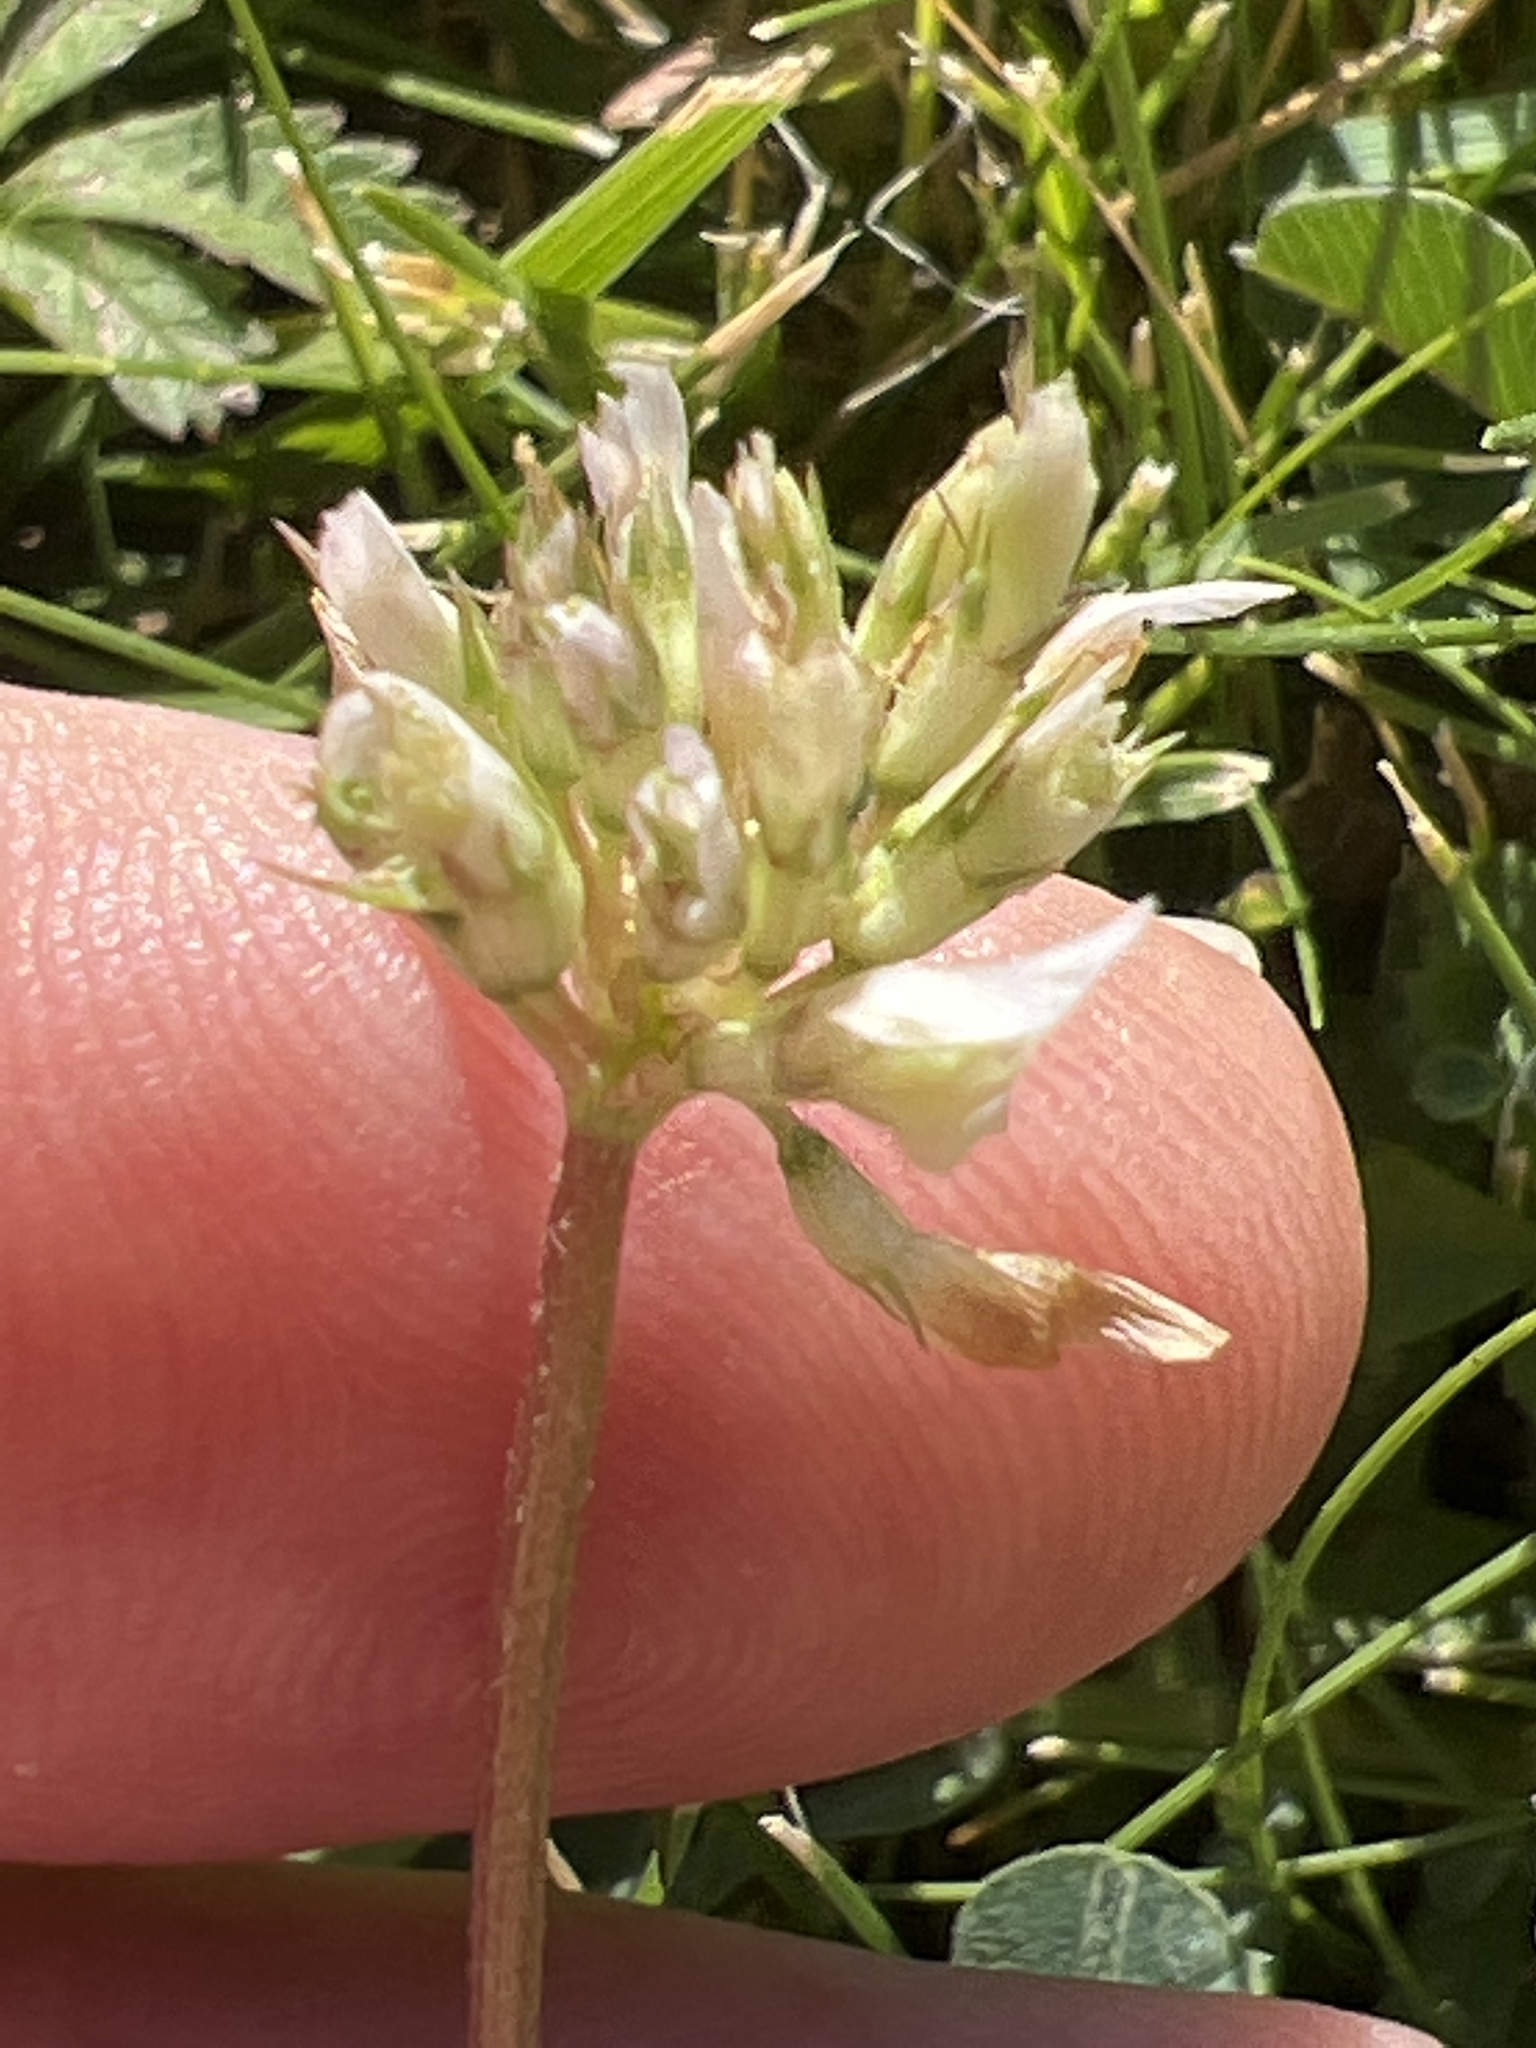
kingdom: Plantae
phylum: Tracheophyta
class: Magnoliopsida
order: Fabales
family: Fabaceae
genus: Trifolium
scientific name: Trifolium repens
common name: White clover
